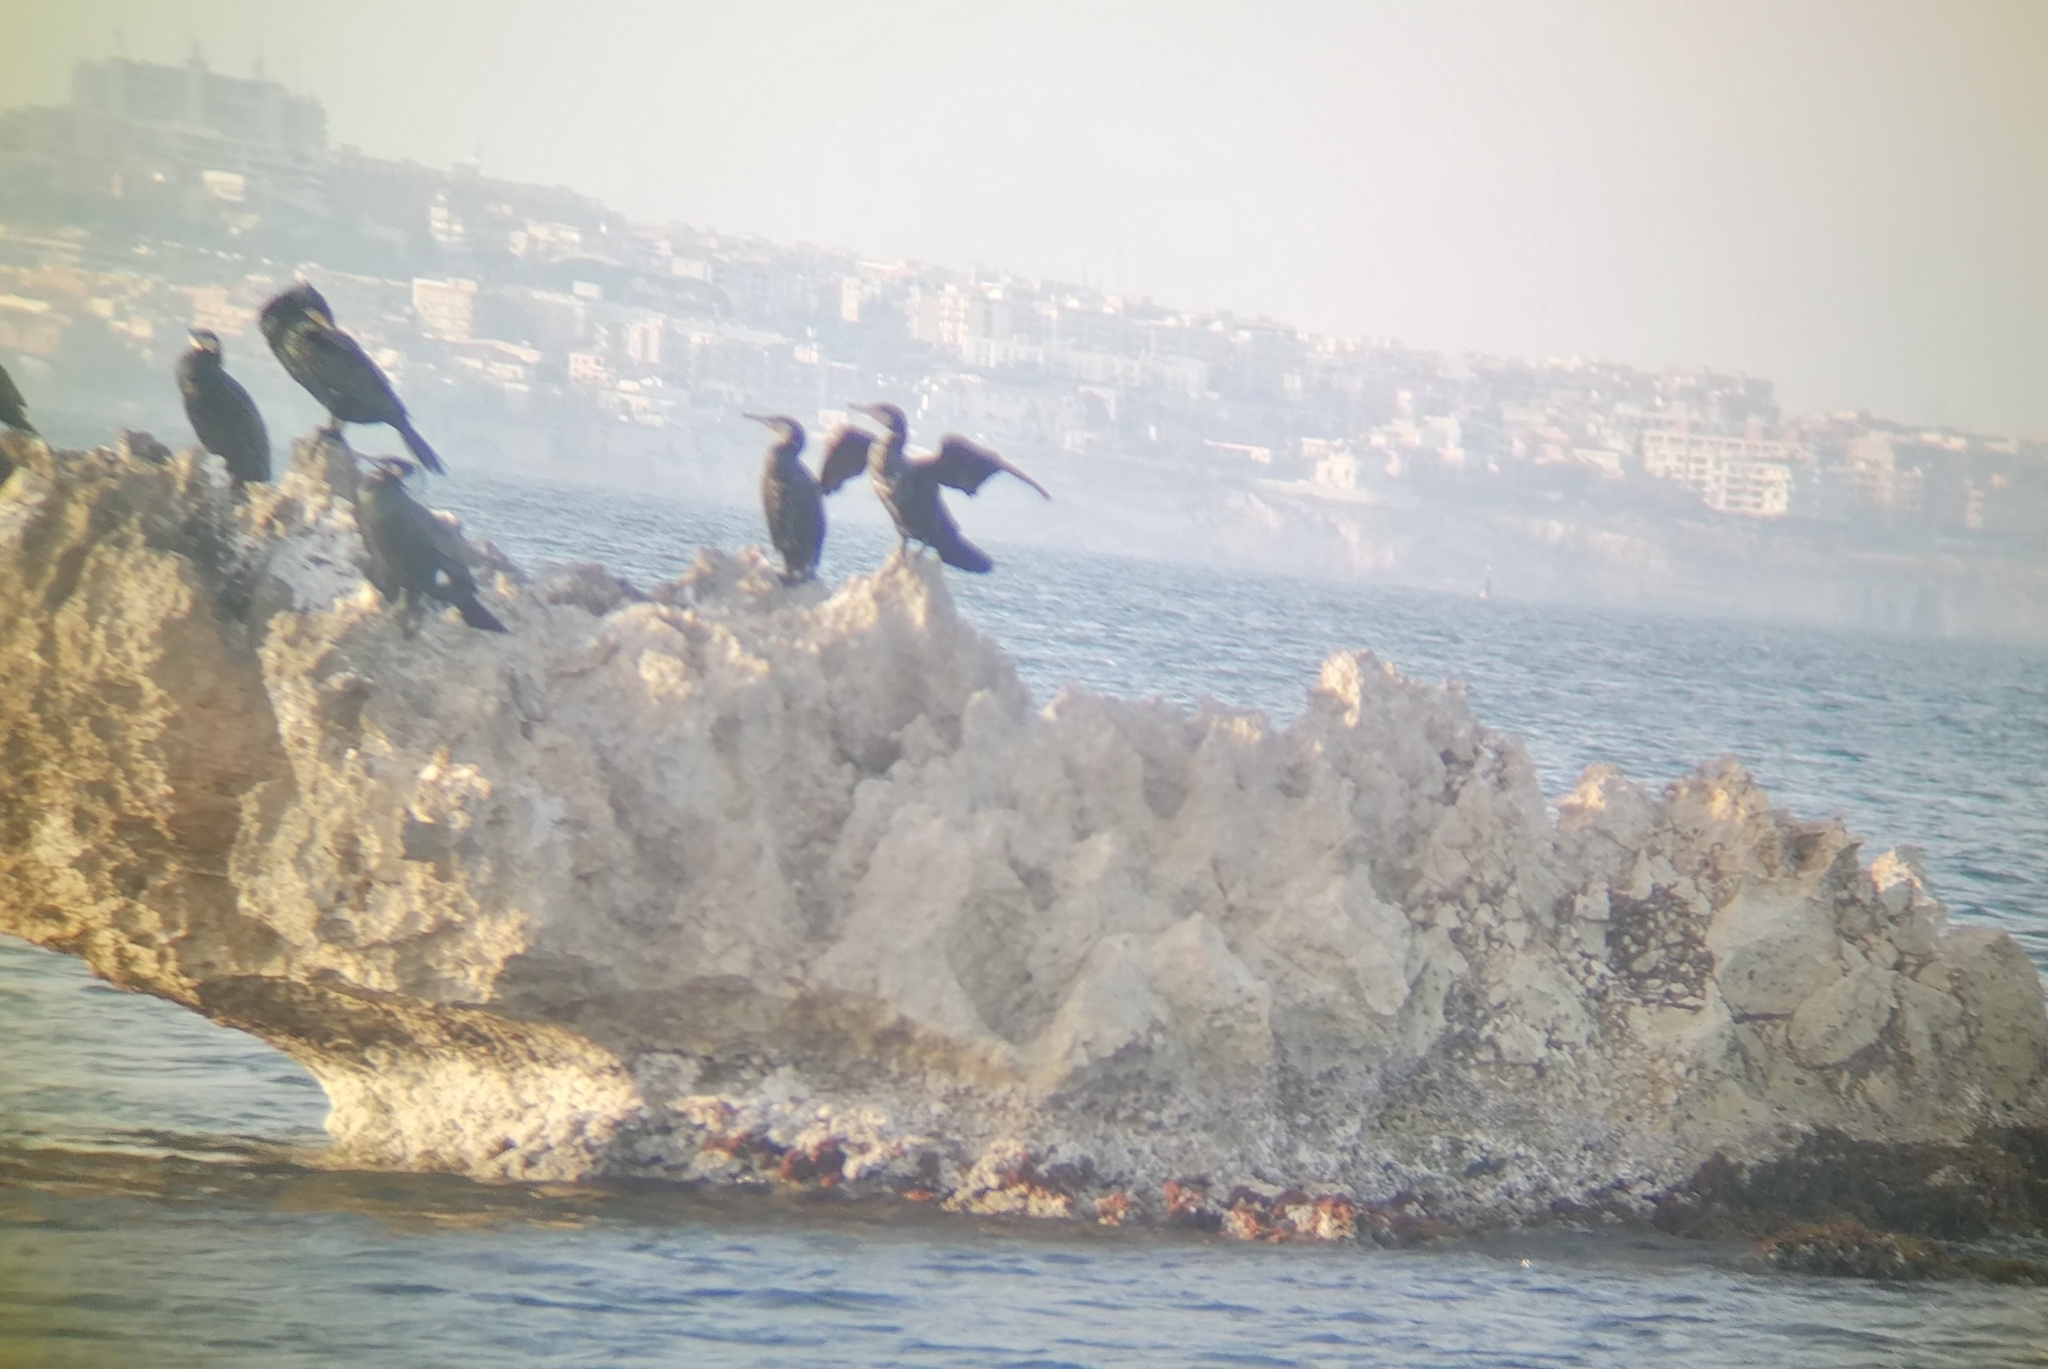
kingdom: Animalia
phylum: Chordata
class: Aves
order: Suliformes
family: Phalacrocoracidae
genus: Phalacrocorax
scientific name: Phalacrocorax carbo
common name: Great cormorant
